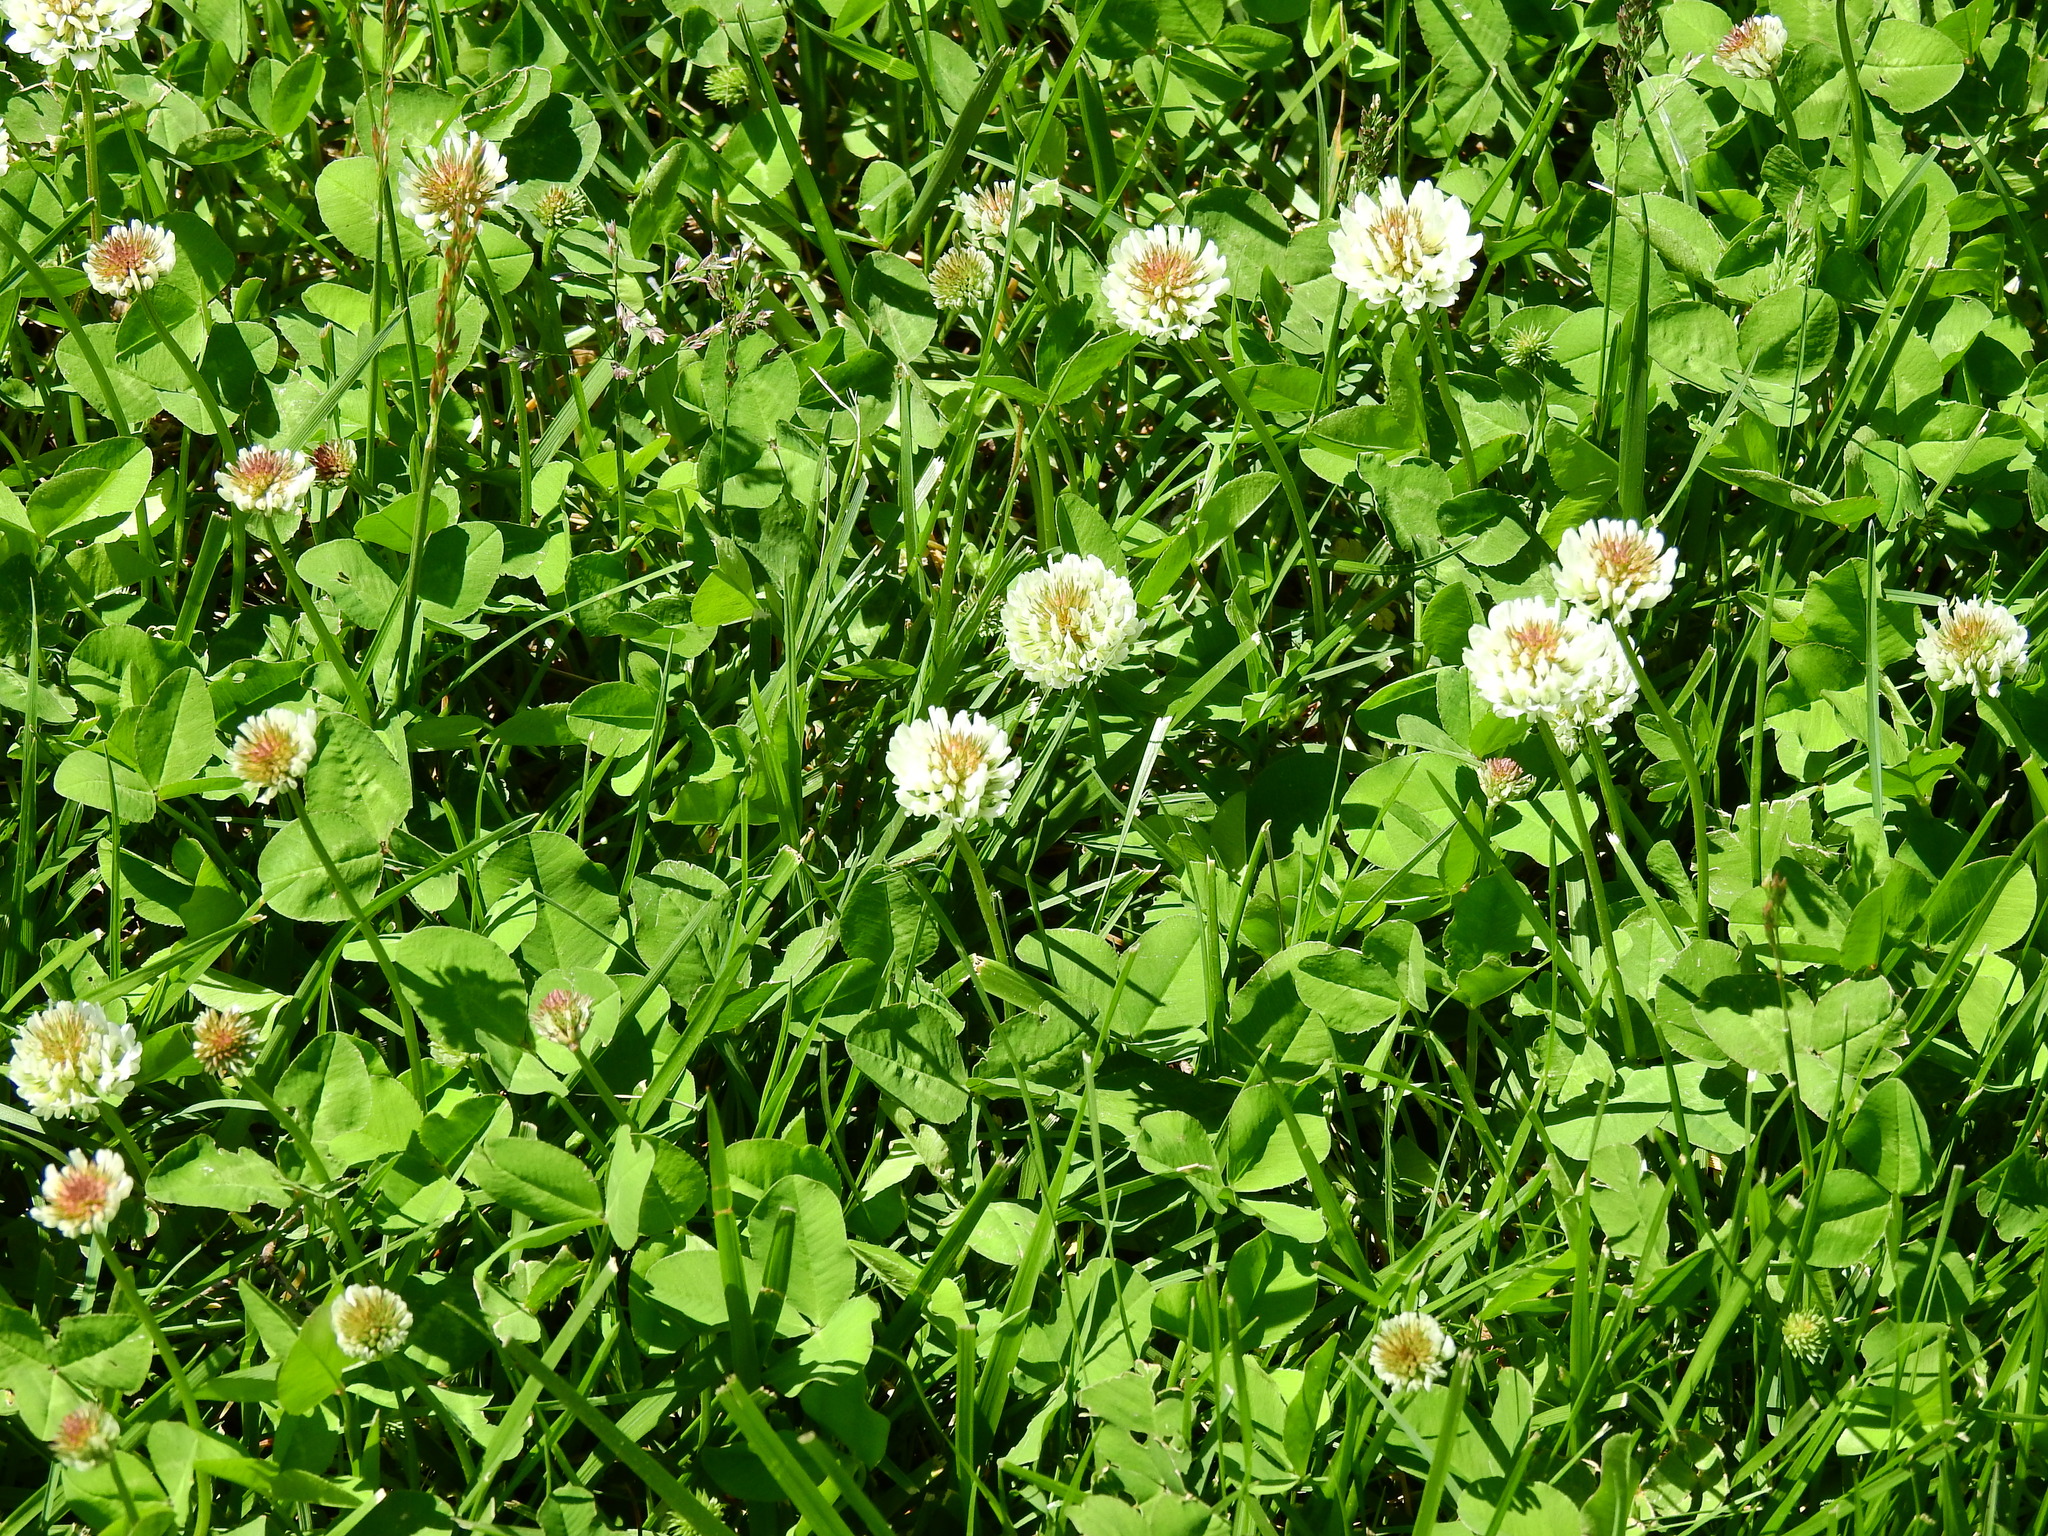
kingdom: Plantae
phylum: Tracheophyta
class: Magnoliopsida
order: Fabales
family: Fabaceae
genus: Trifolium
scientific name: Trifolium repens
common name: White clover
